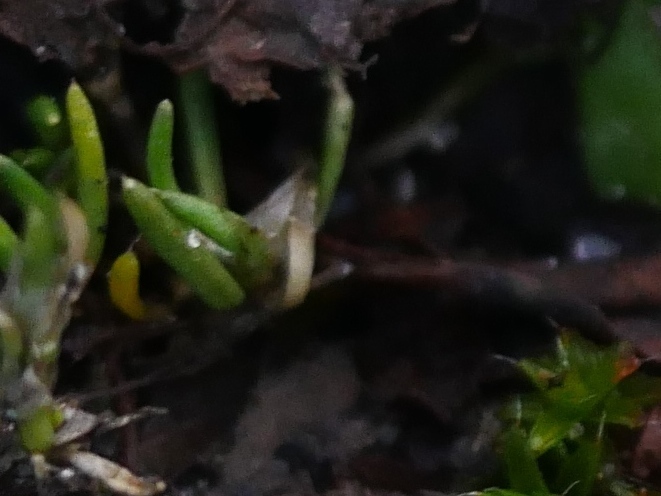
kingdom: Plantae
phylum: Tracheophyta
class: Magnoliopsida
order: Caryophyllales
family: Caryophyllaceae
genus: Sagina
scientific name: Sagina procumbens
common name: Procumbent pearlwort
